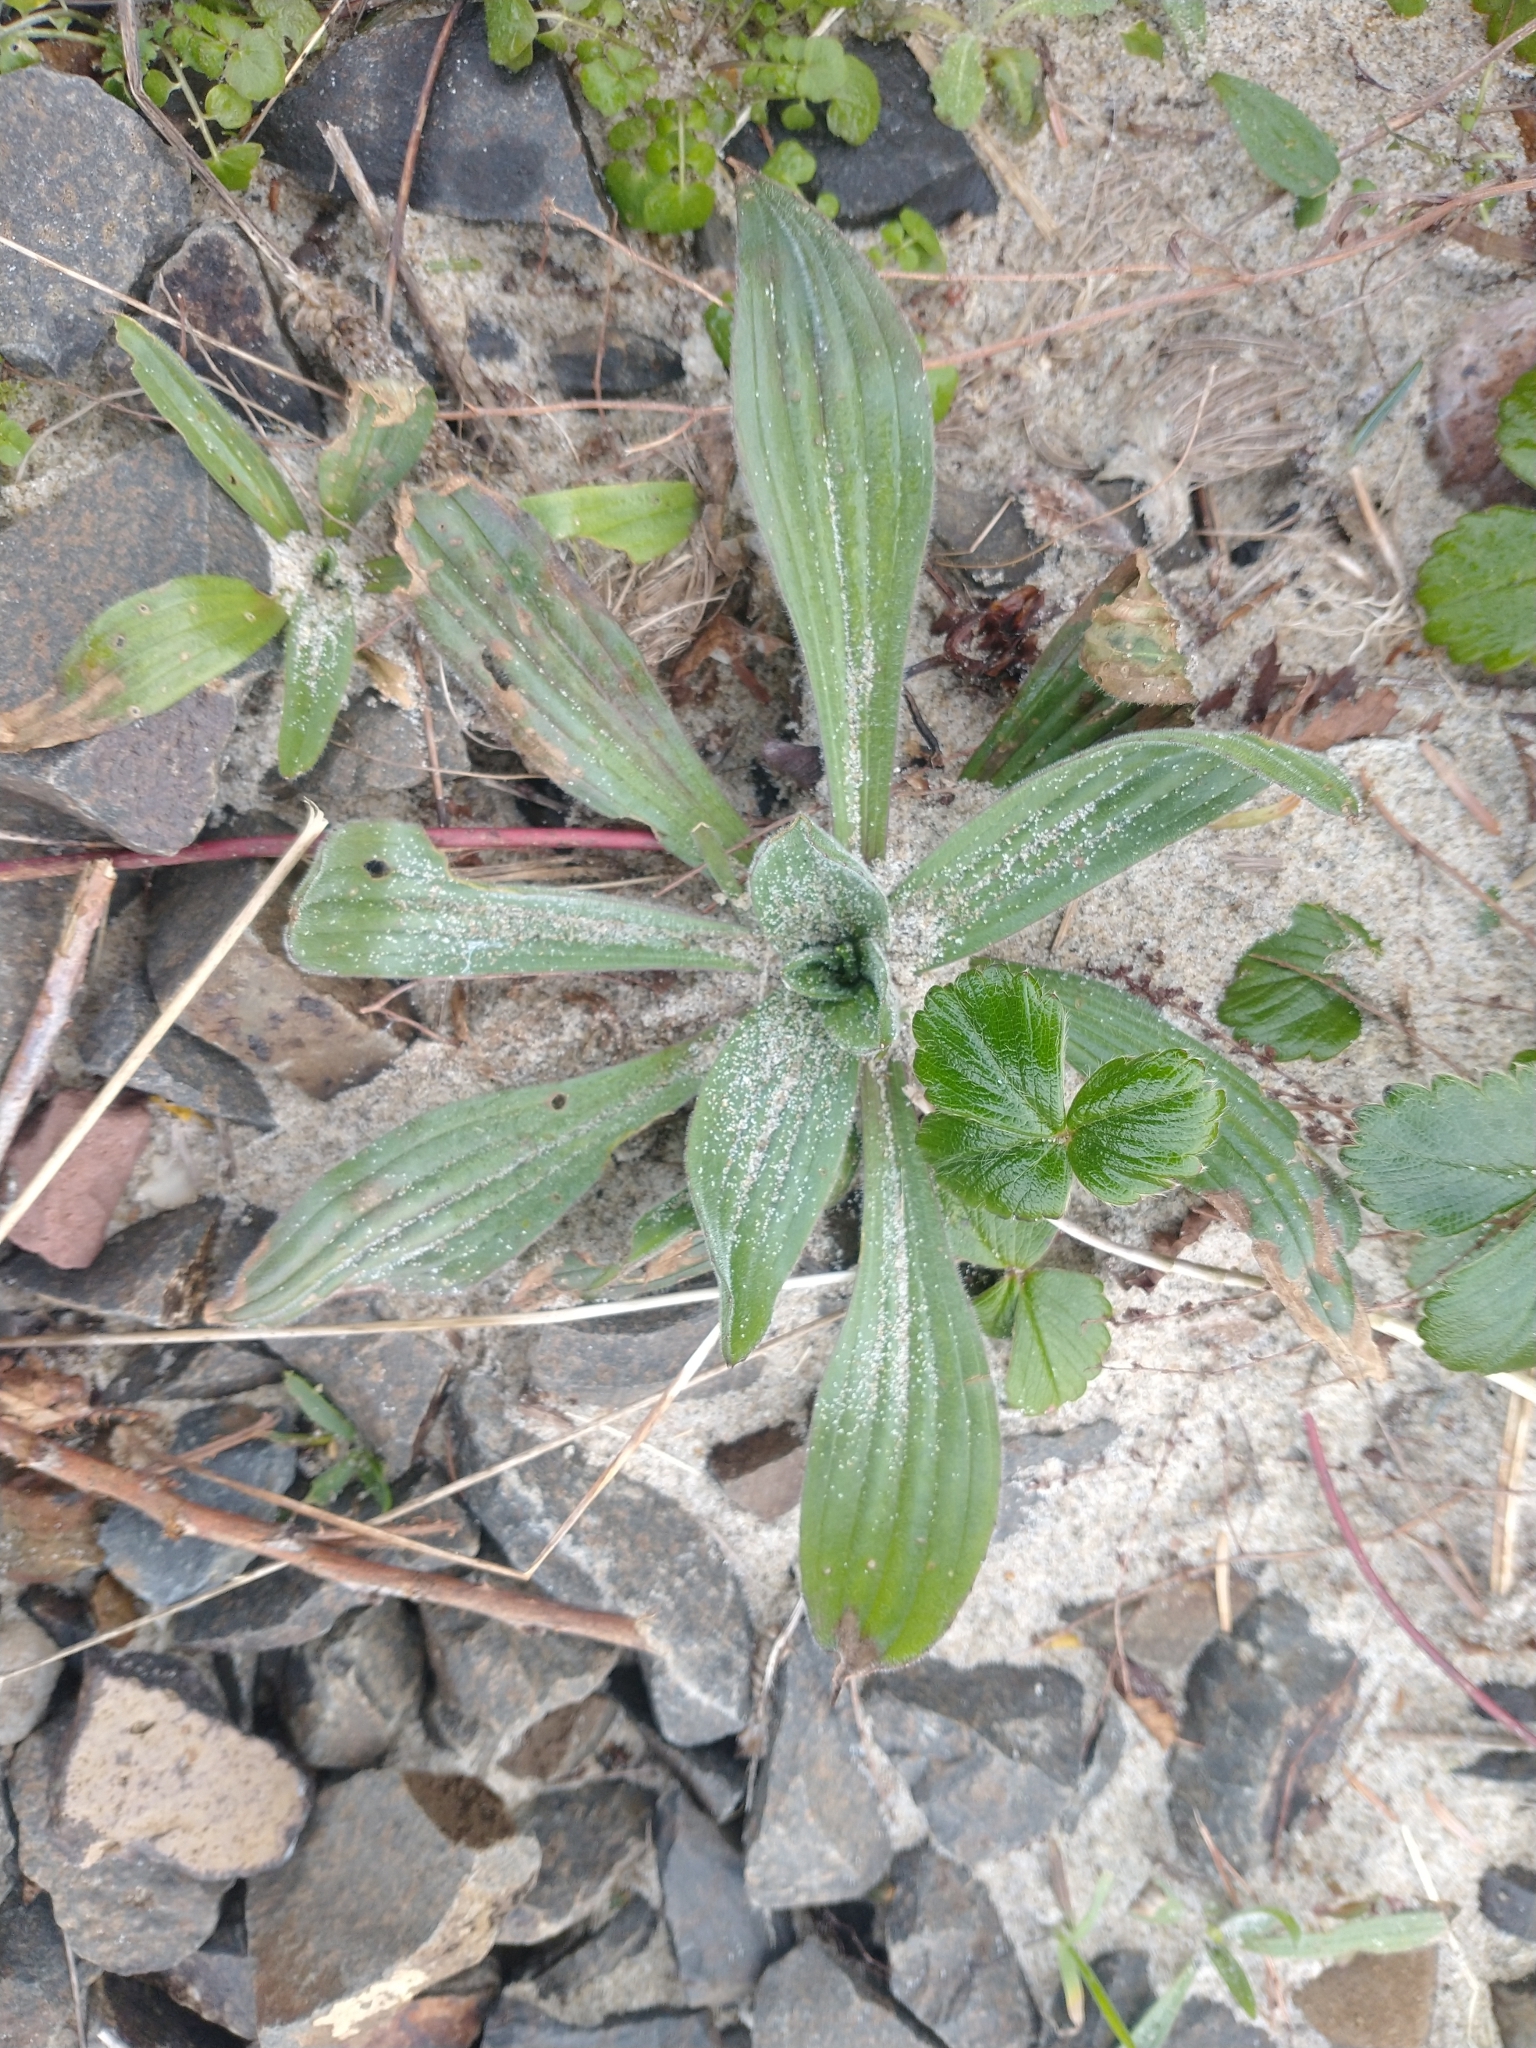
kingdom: Plantae
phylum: Tracheophyta
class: Magnoliopsida
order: Lamiales
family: Plantaginaceae
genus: Plantago
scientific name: Plantago lanceolata
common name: Ribwort plantain
